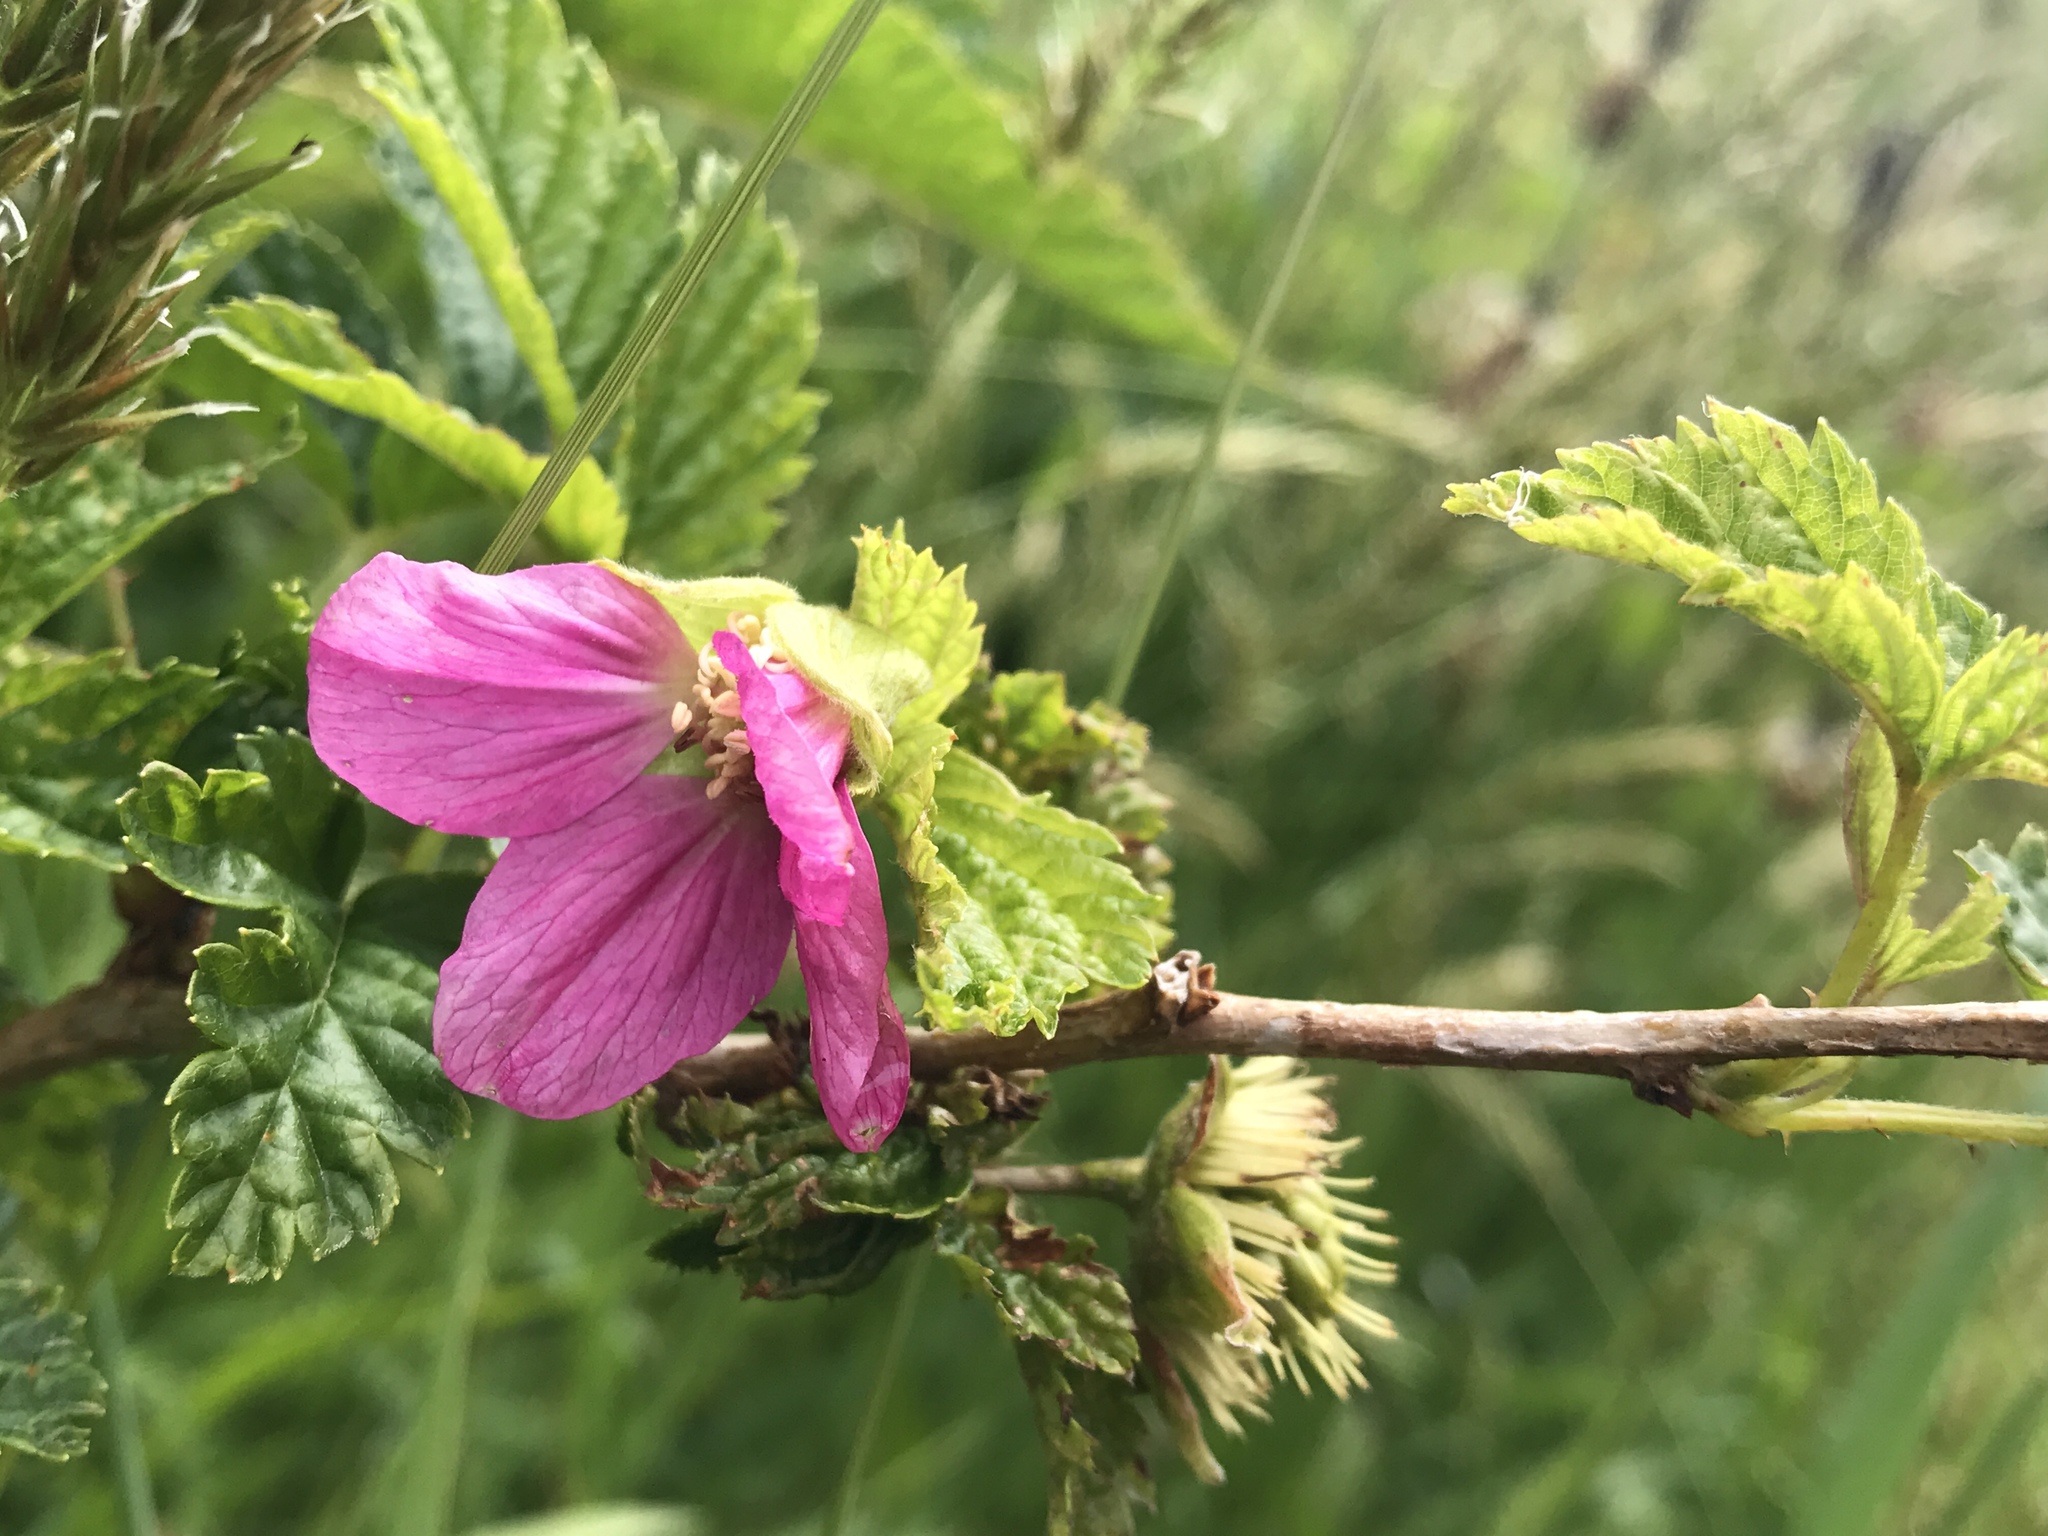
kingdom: Plantae
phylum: Tracheophyta
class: Magnoliopsida
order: Rosales
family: Rosaceae
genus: Rubus
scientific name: Rubus spectabilis
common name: Salmonberry
